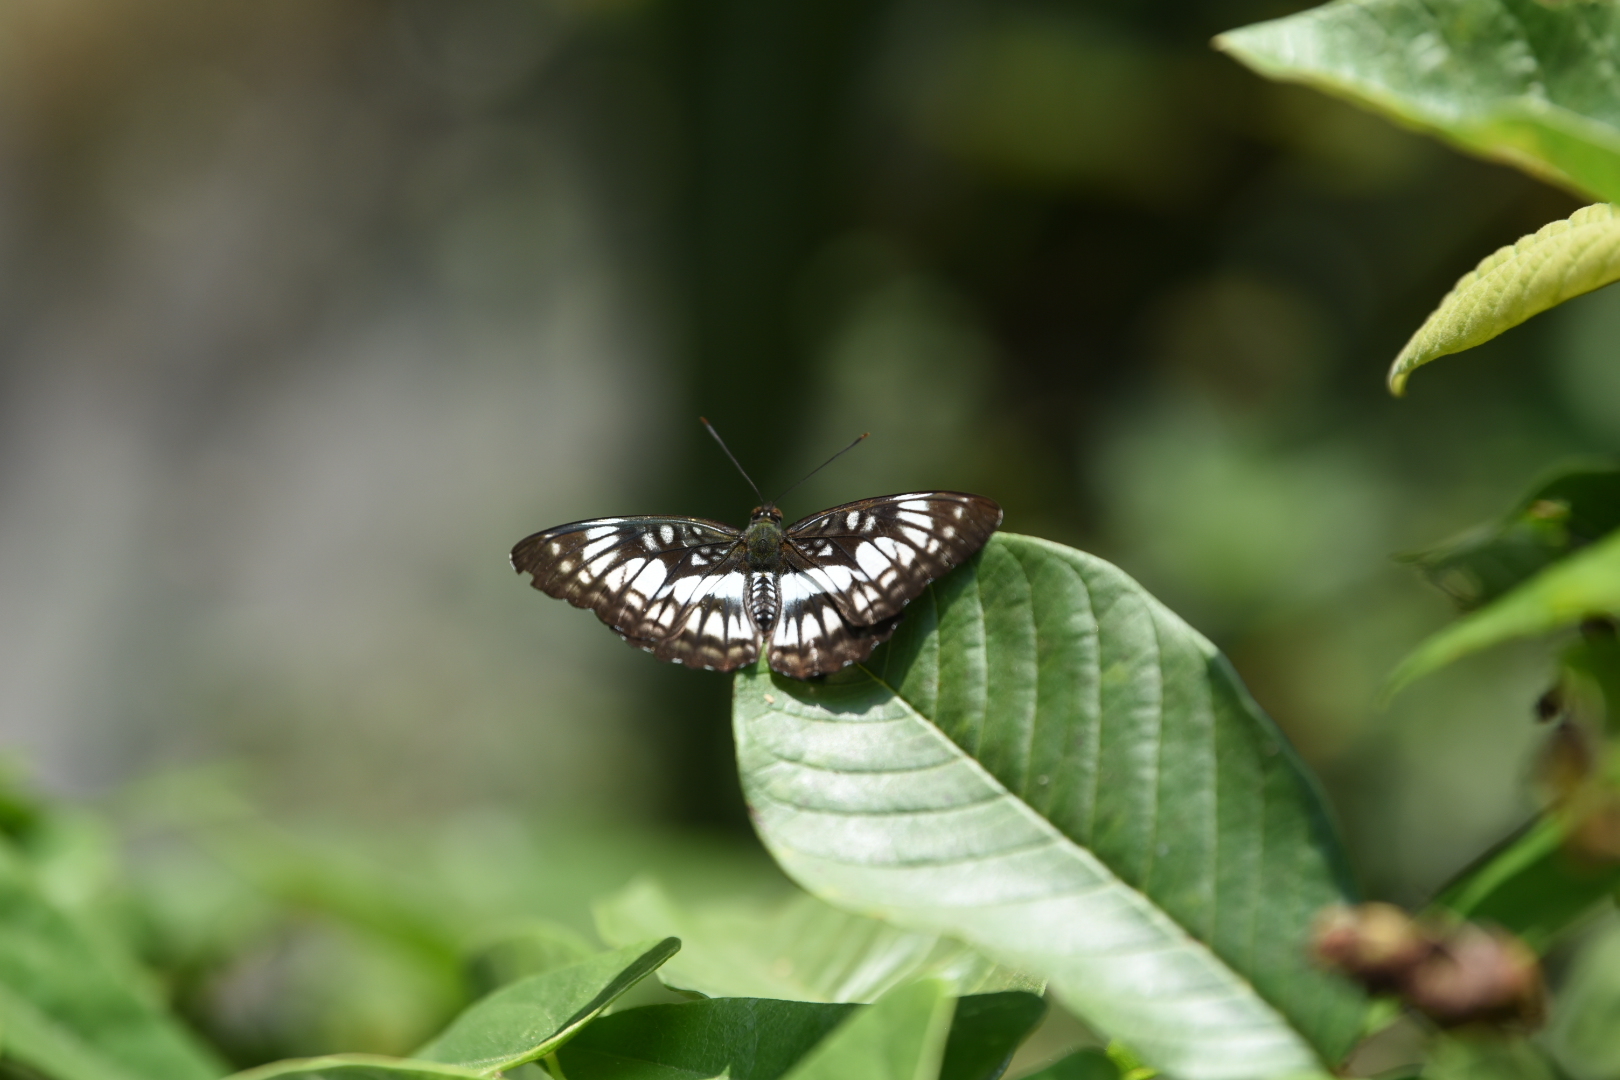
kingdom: Animalia
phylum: Arthropoda
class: Insecta
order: Lepidoptera
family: Nymphalidae
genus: Parathyma
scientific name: Parathyma ranga
